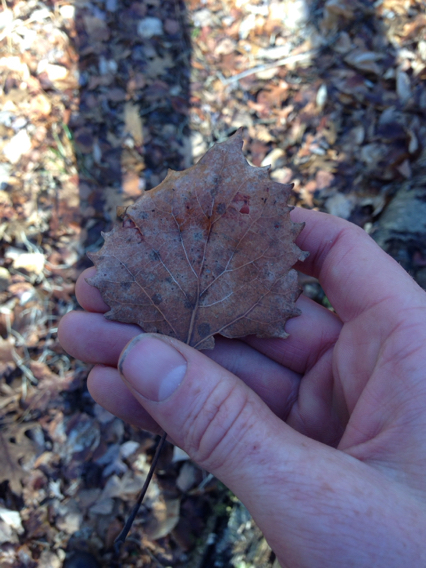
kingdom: Plantae
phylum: Tracheophyta
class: Magnoliopsida
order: Malpighiales
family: Salicaceae
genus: Populus
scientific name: Populus grandidentata
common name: Bigtooth aspen
